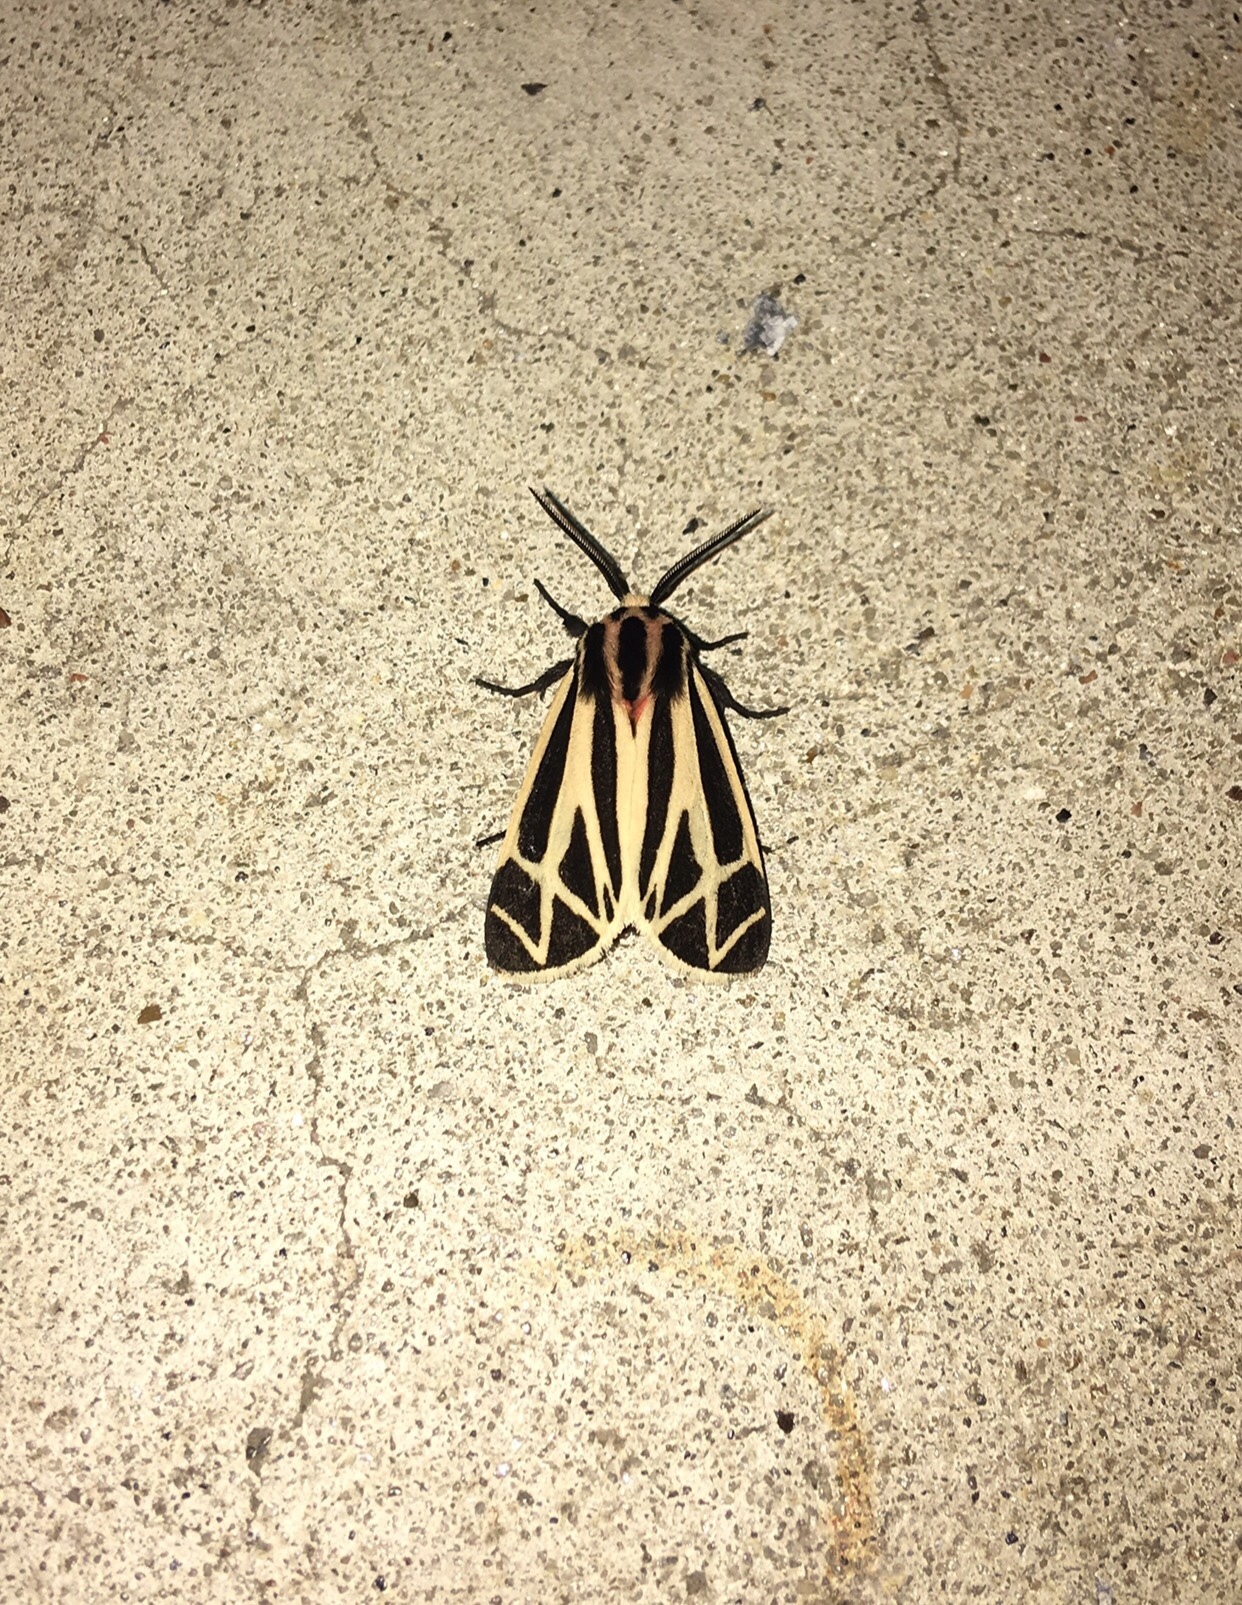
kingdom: Animalia
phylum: Arthropoda
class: Insecta
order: Lepidoptera
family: Erebidae
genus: Apantesis
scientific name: Apantesis phalerata
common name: Harnessed tiger moth
